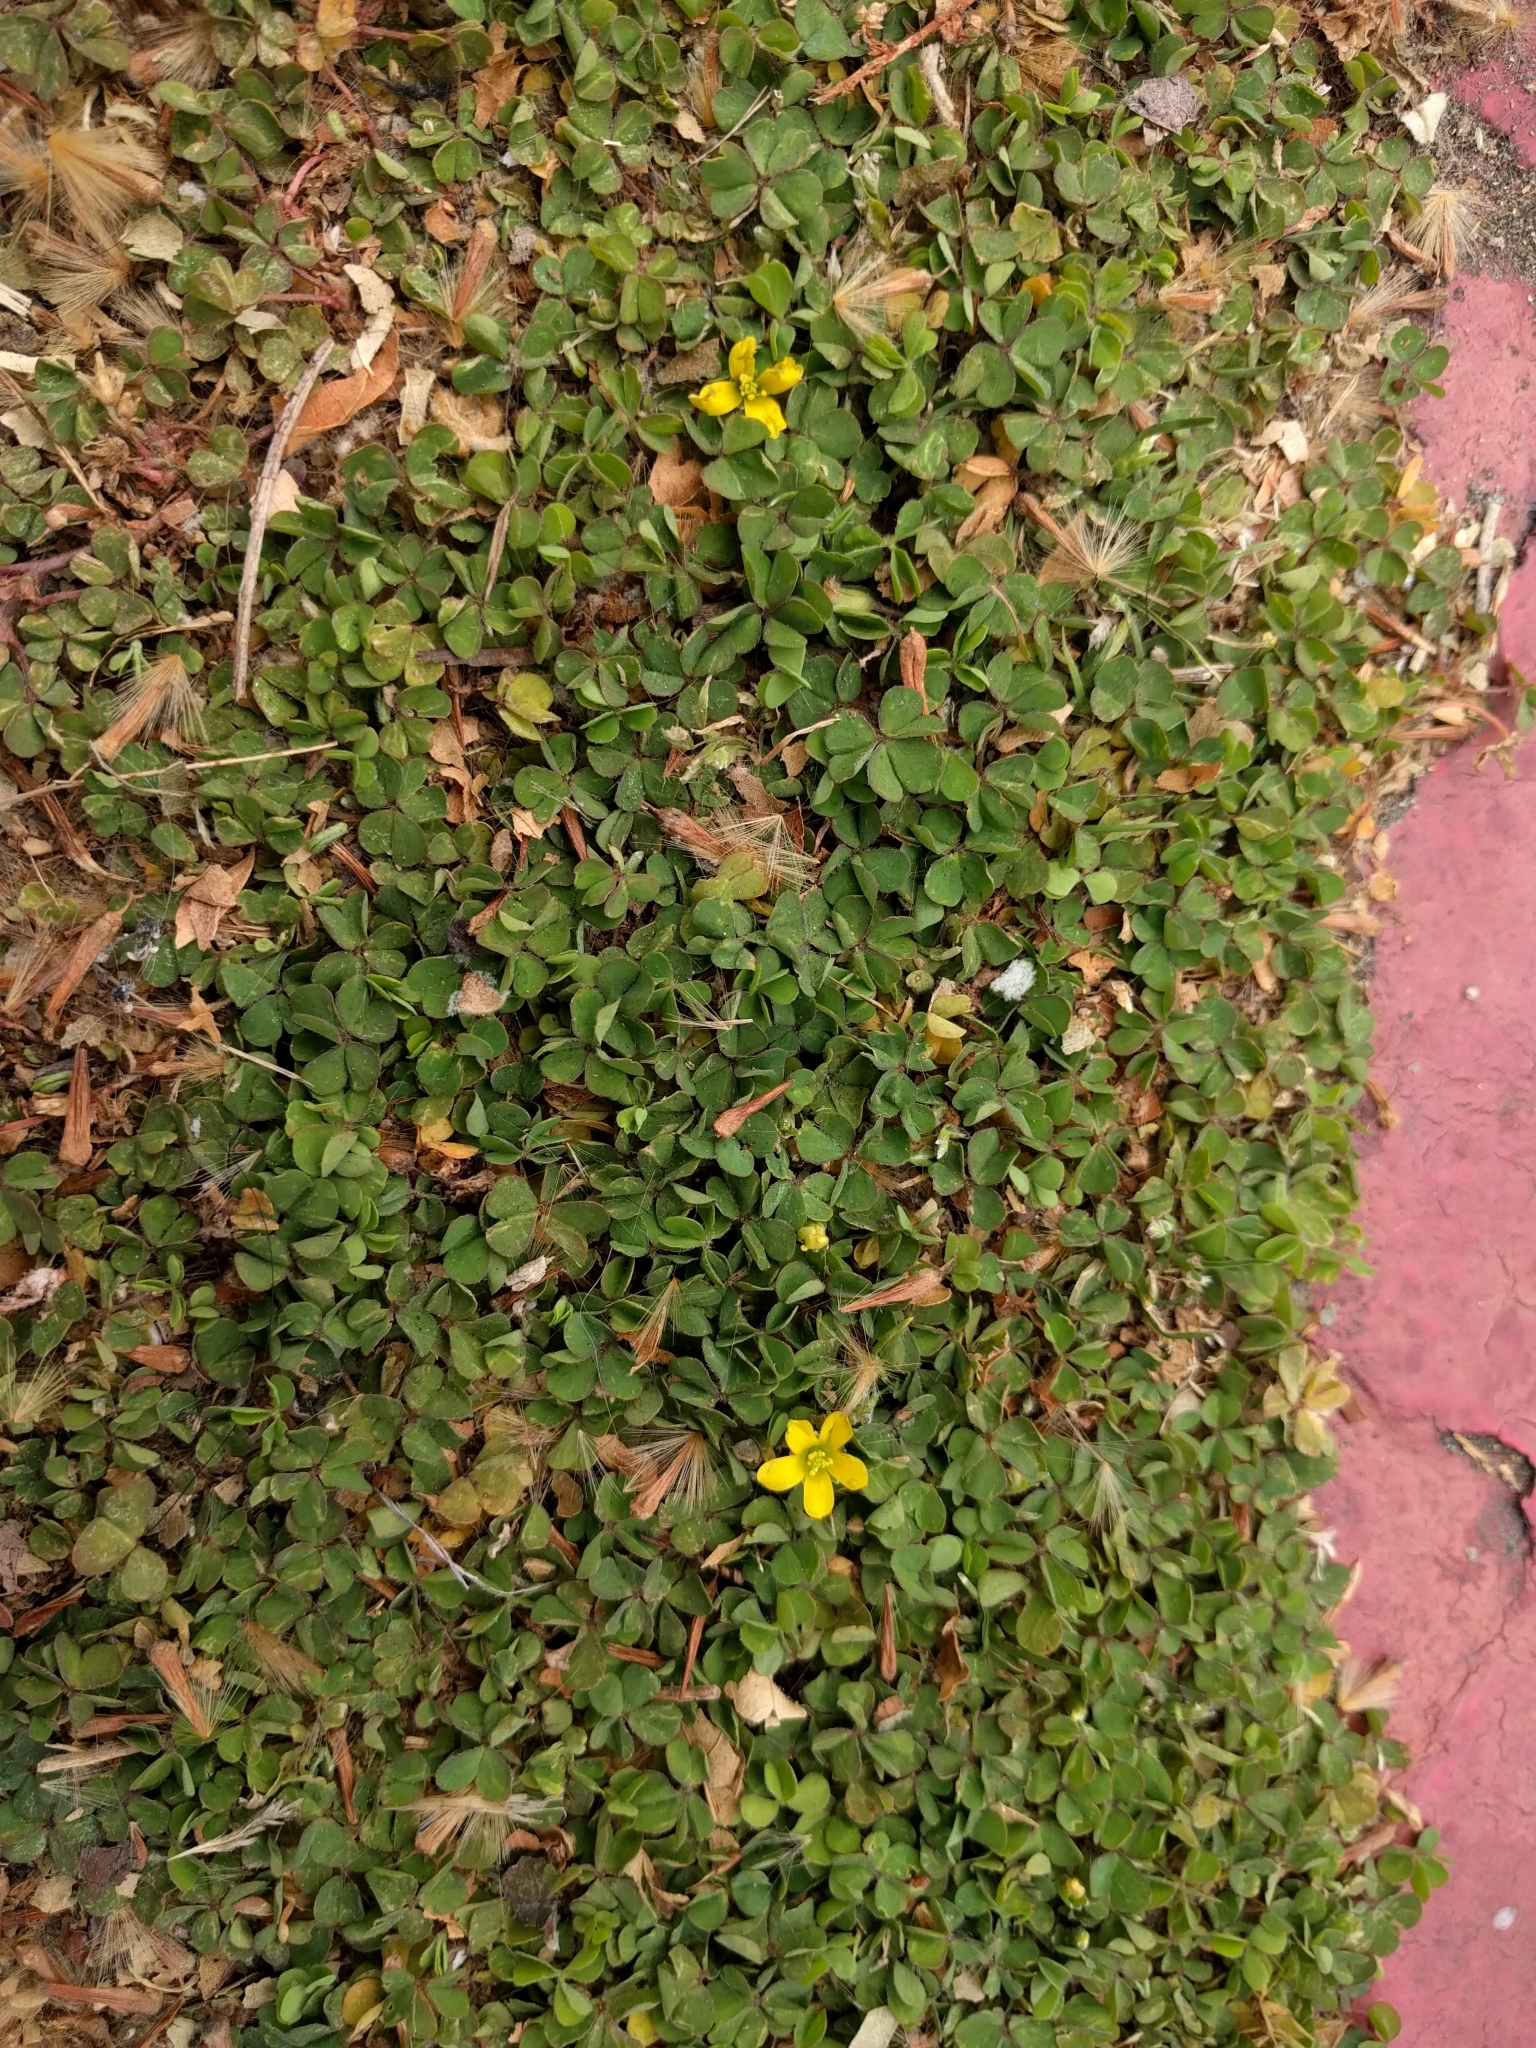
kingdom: Plantae
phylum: Tracheophyta
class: Magnoliopsida
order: Oxalidales
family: Oxalidaceae
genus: Oxalis
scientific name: Oxalis corniculata
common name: Procumbent yellow-sorrel
